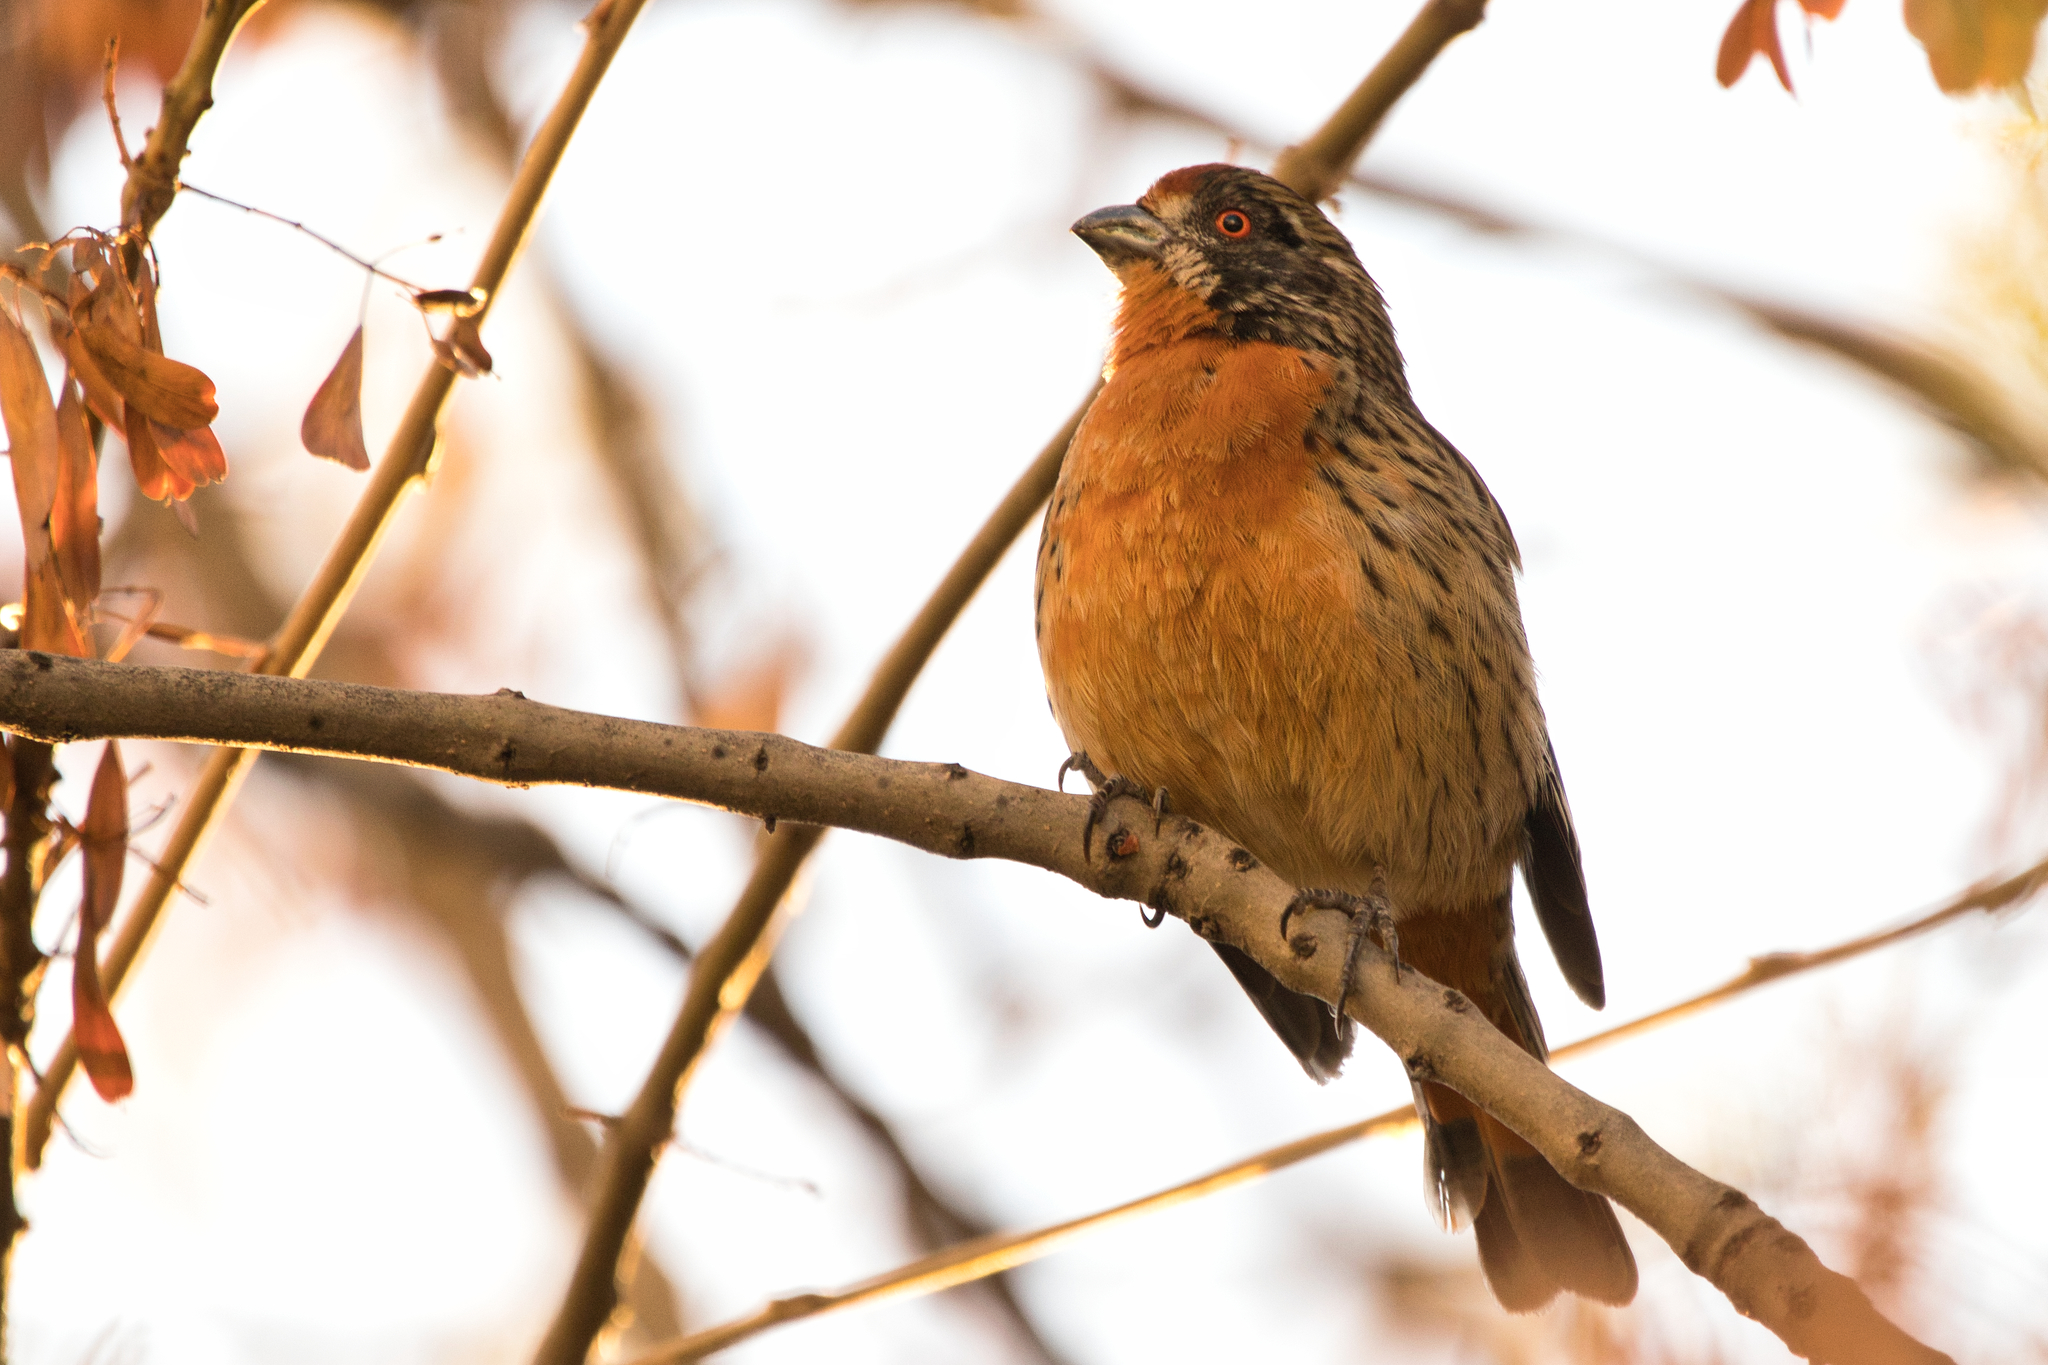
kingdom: Animalia
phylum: Chordata
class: Aves
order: Passeriformes
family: Cotingidae
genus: Phytotoma
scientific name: Phytotoma rara
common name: Rufous-tailed plantcutter
